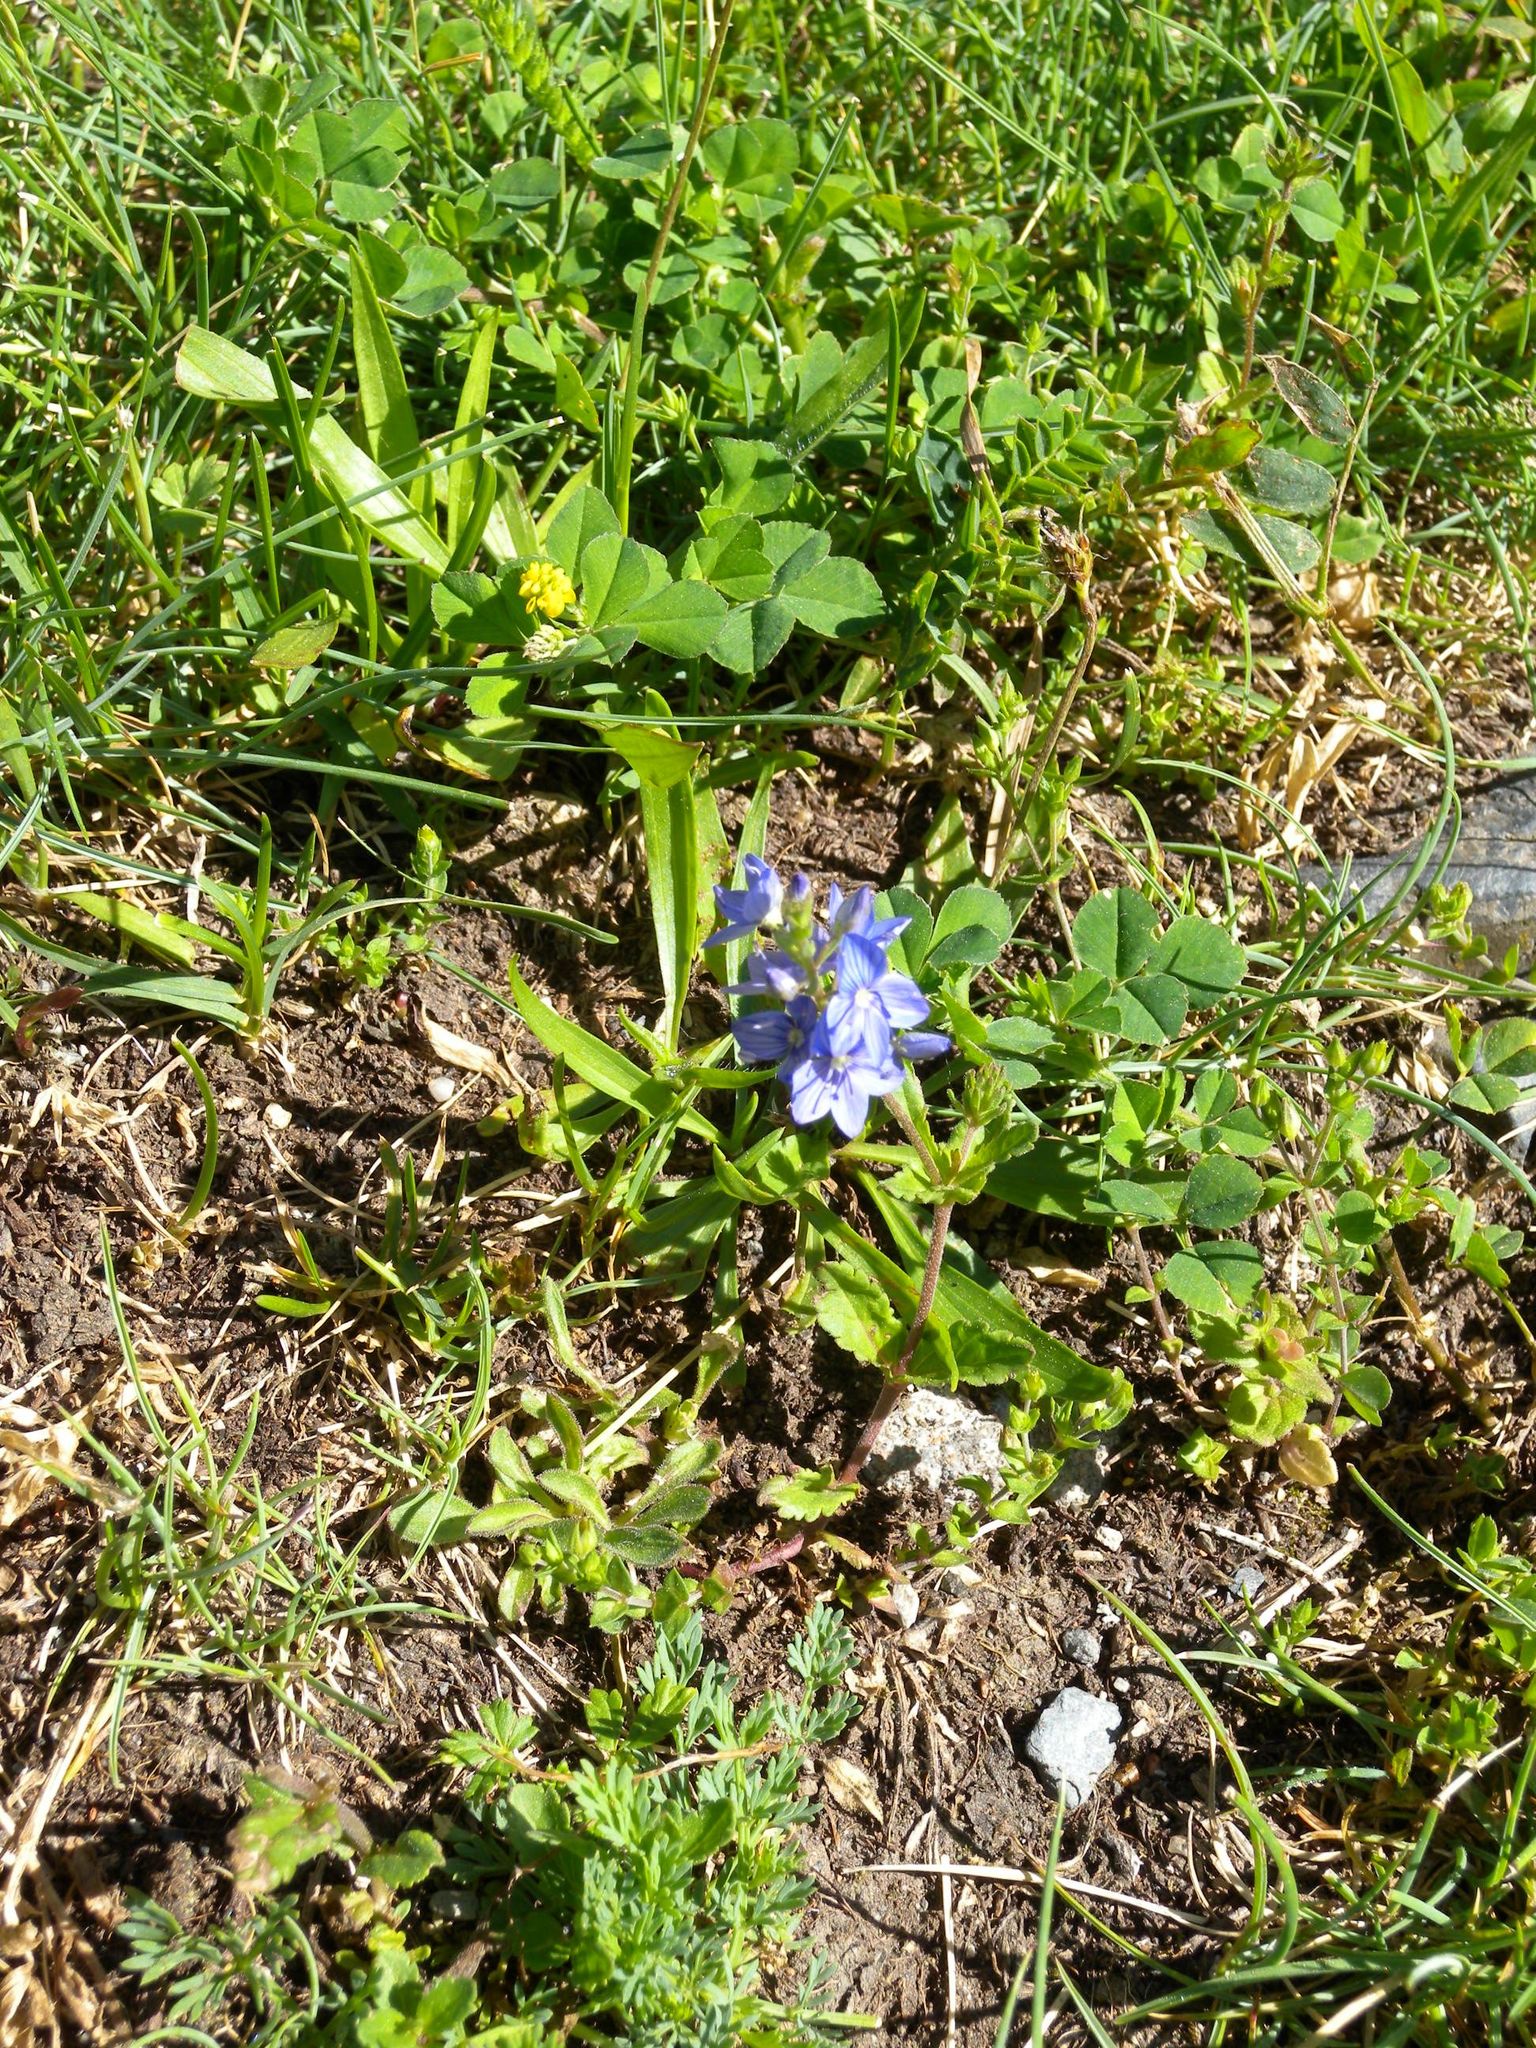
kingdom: Plantae
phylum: Tracheophyta
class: Magnoliopsida
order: Lamiales
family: Plantaginaceae
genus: Veronica
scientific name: Veronica orsiniana
